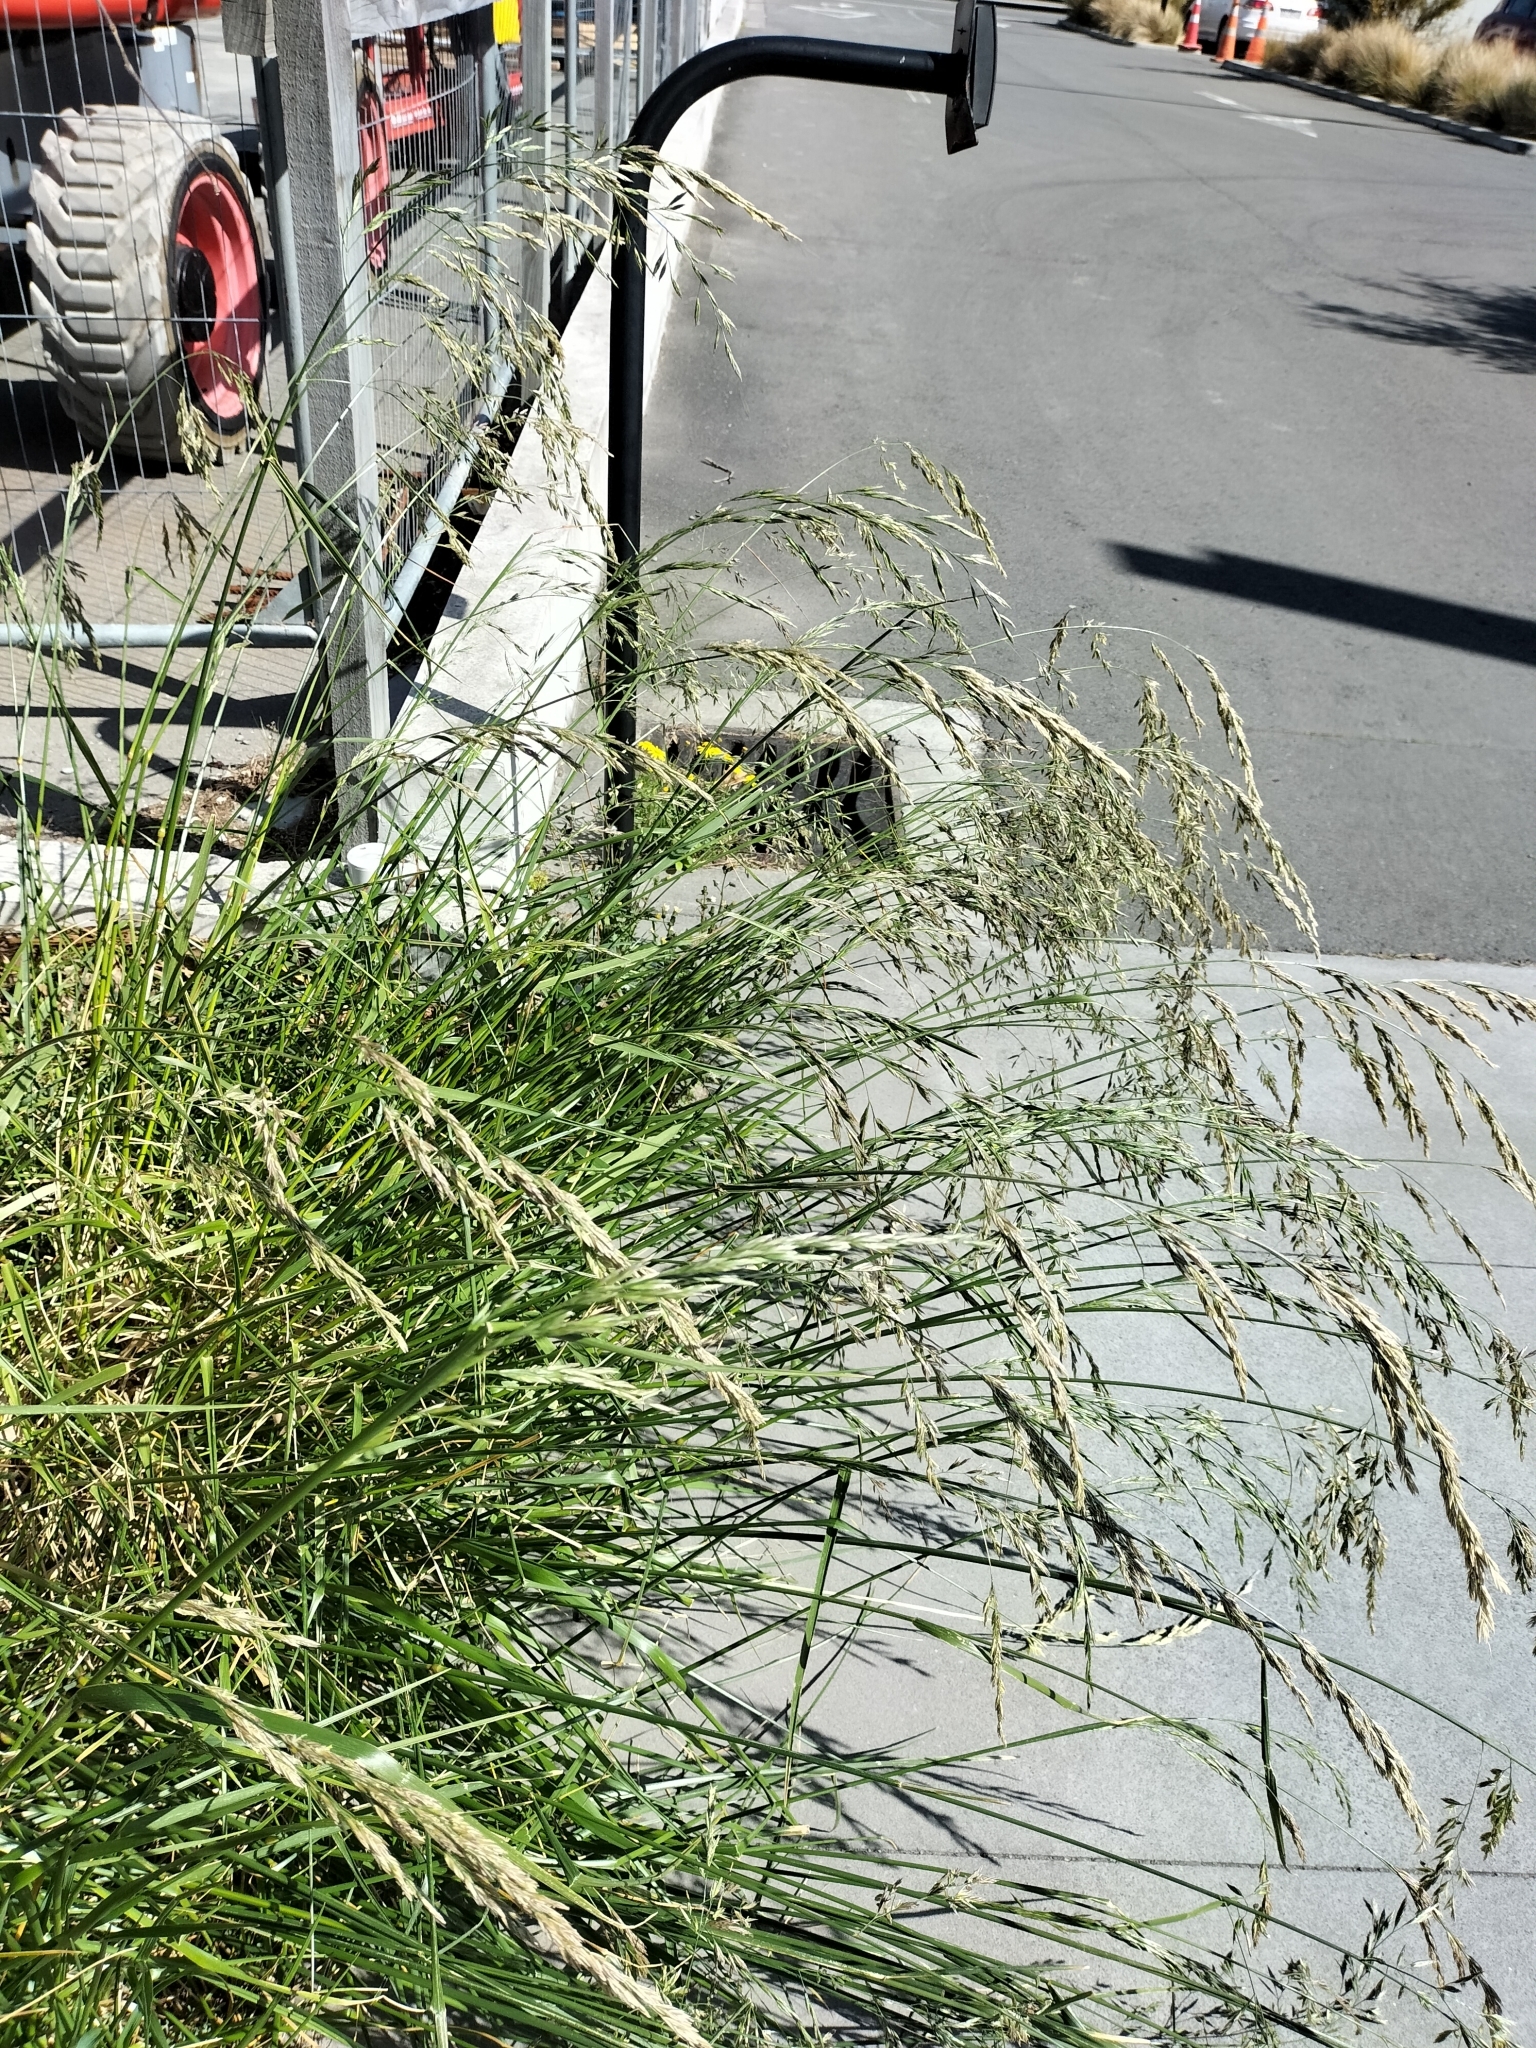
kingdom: Plantae
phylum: Tracheophyta
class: Liliopsida
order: Poales
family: Poaceae
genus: Lolium
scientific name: Lolium arundinaceum
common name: Reed fescue
